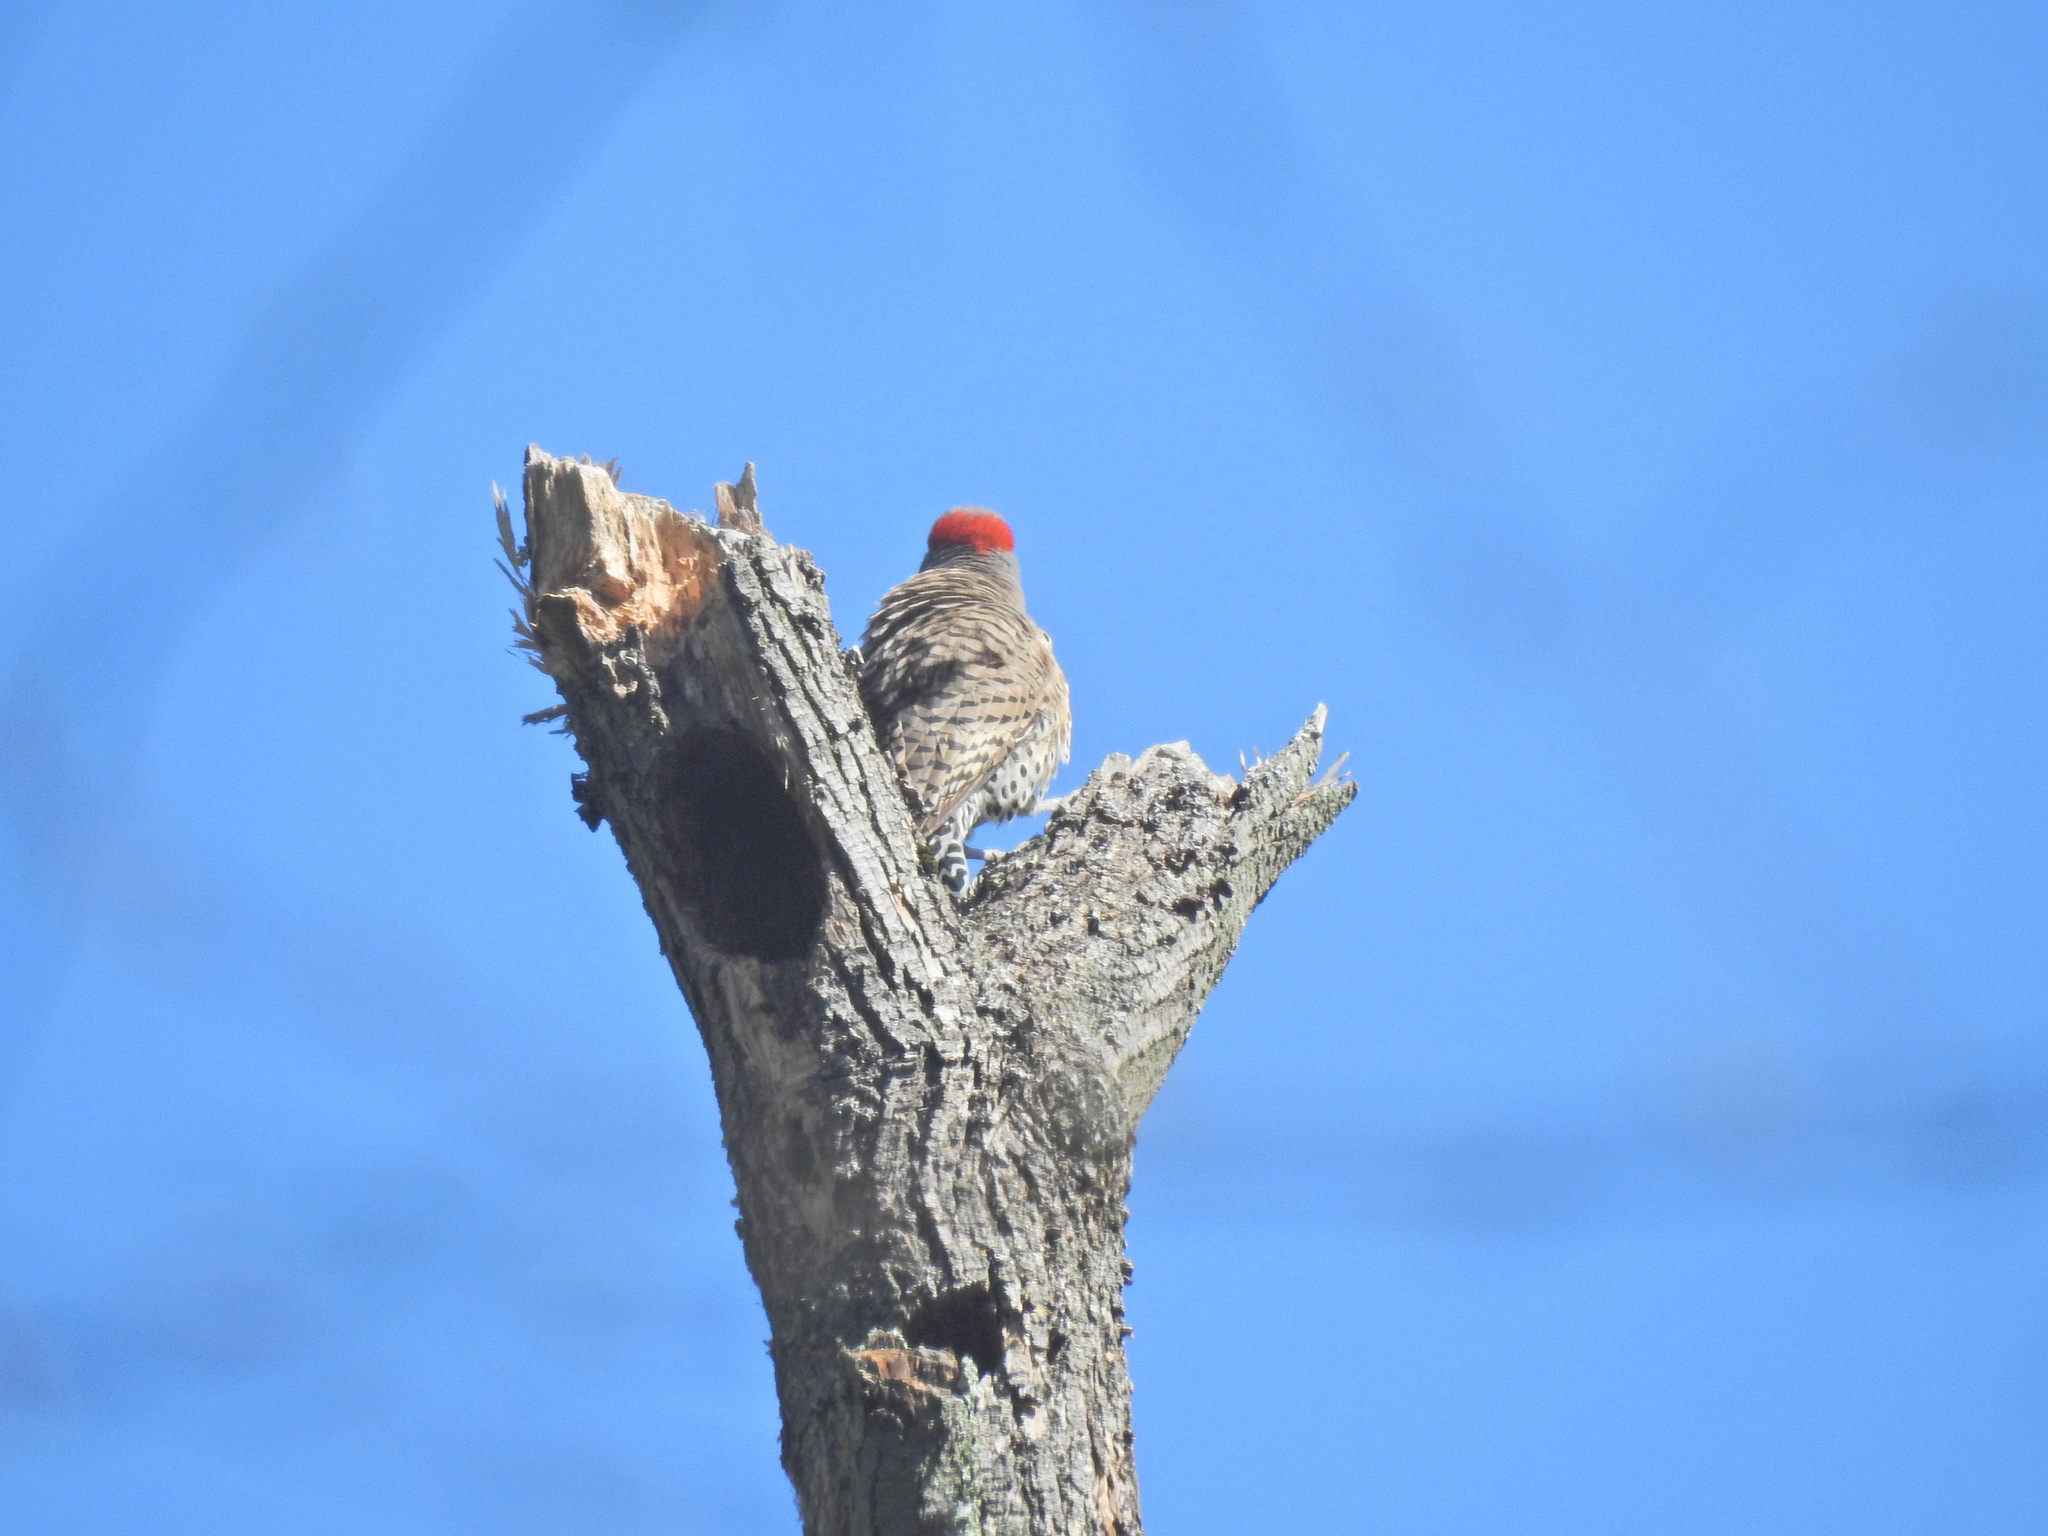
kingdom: Animalia
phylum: Chordata
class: Aves
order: Piciformes
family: Picidae
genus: Colaptes
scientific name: Colaptes auratus
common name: Northern flicker
